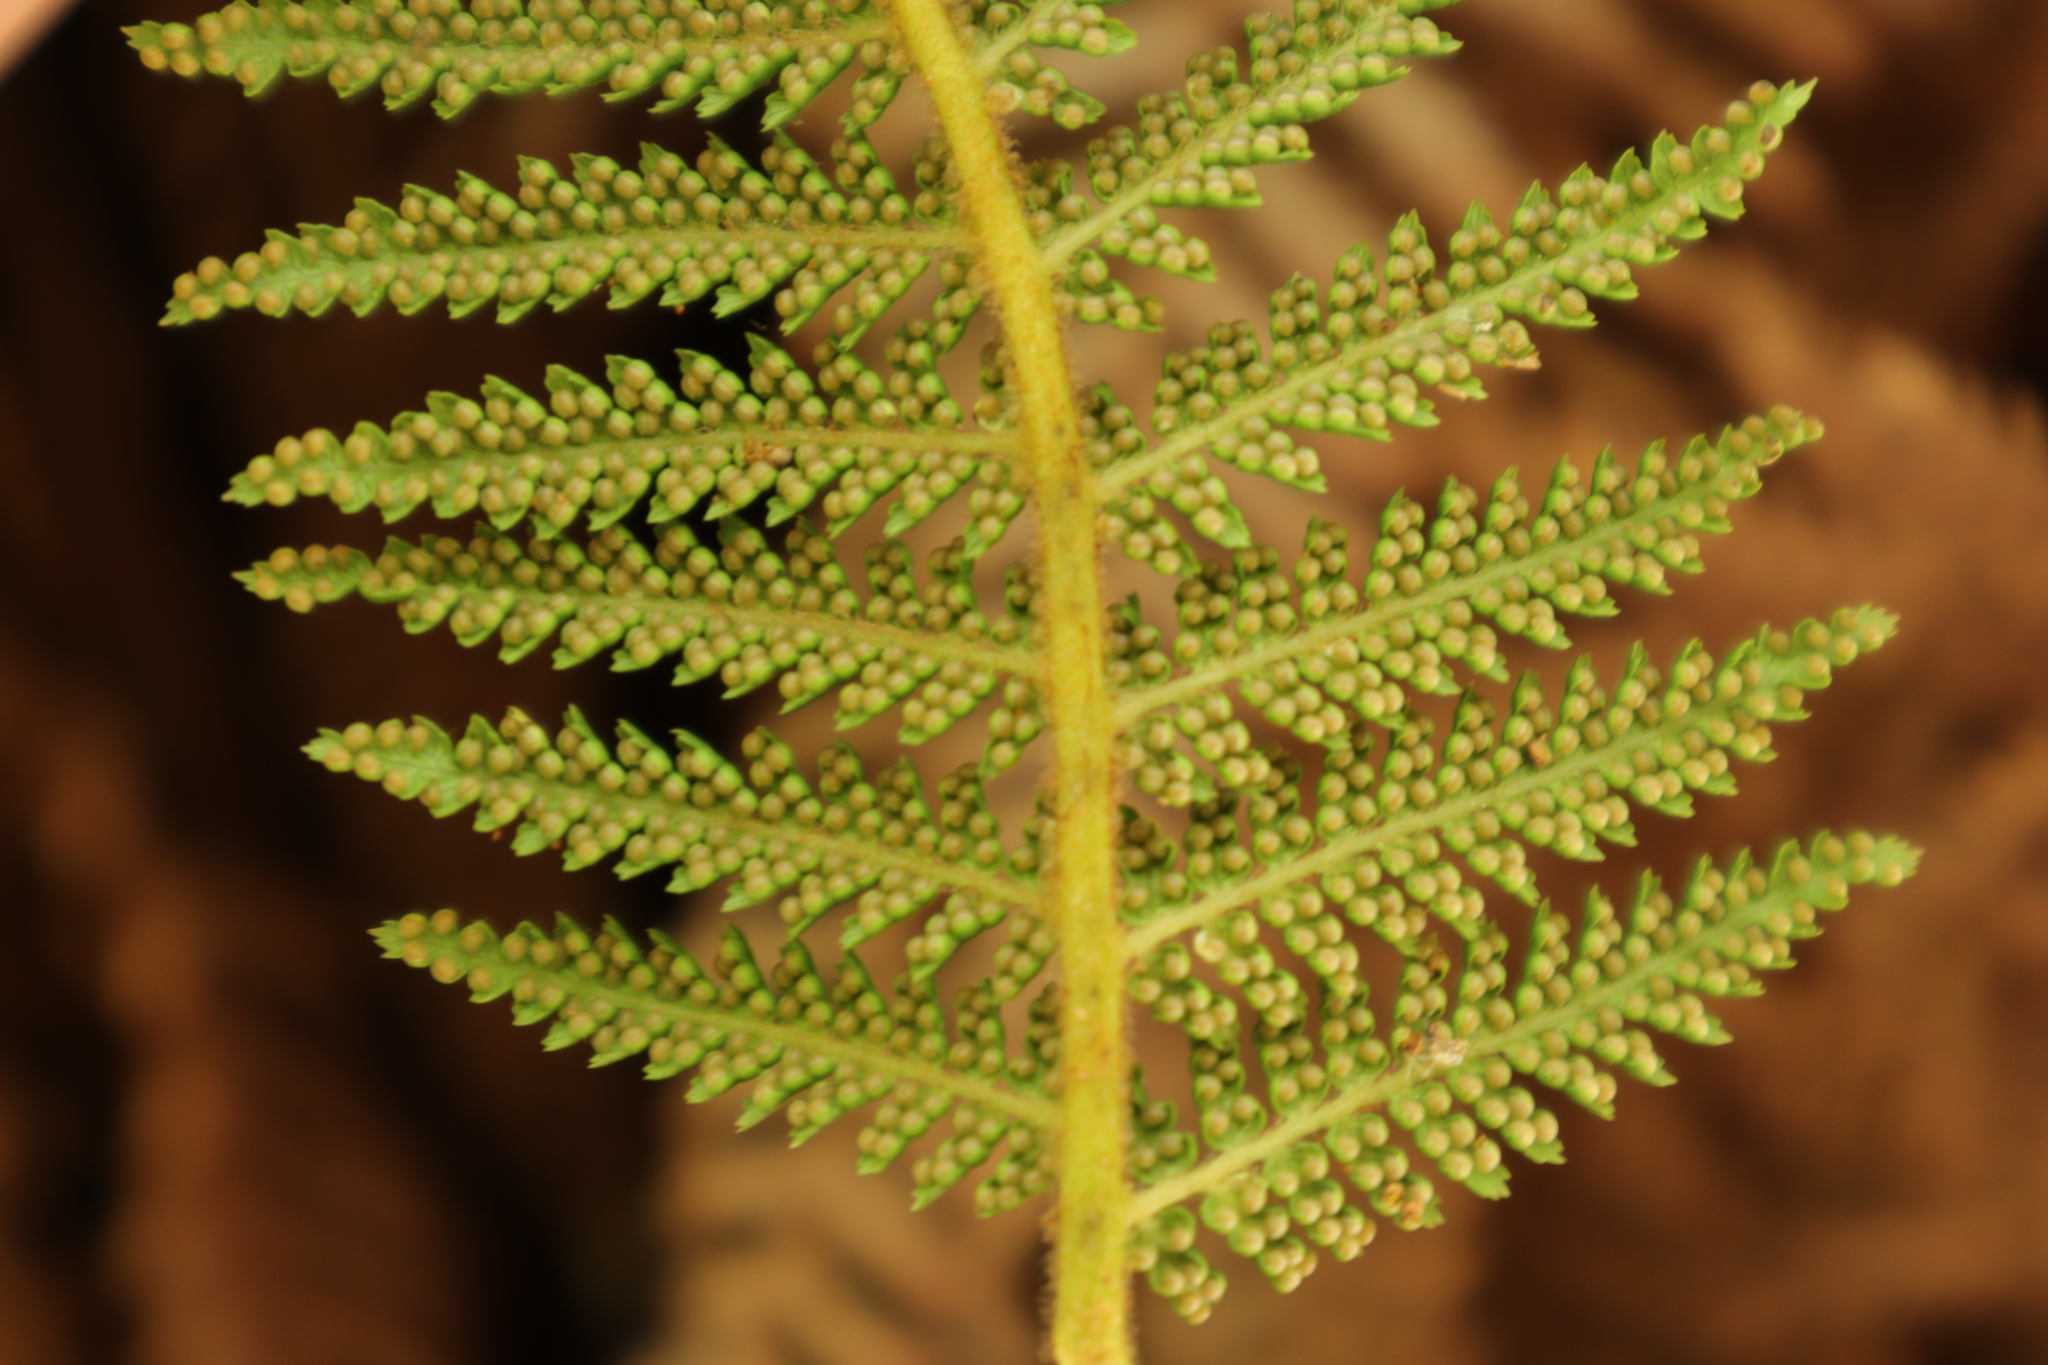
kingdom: Plantae
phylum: Tracheophyta
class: Polypodiopsida
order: Cyatheales
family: Dicksoniaceae
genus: Dicksonia
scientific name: Dicksonia fibrosa
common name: Golden tree fern
